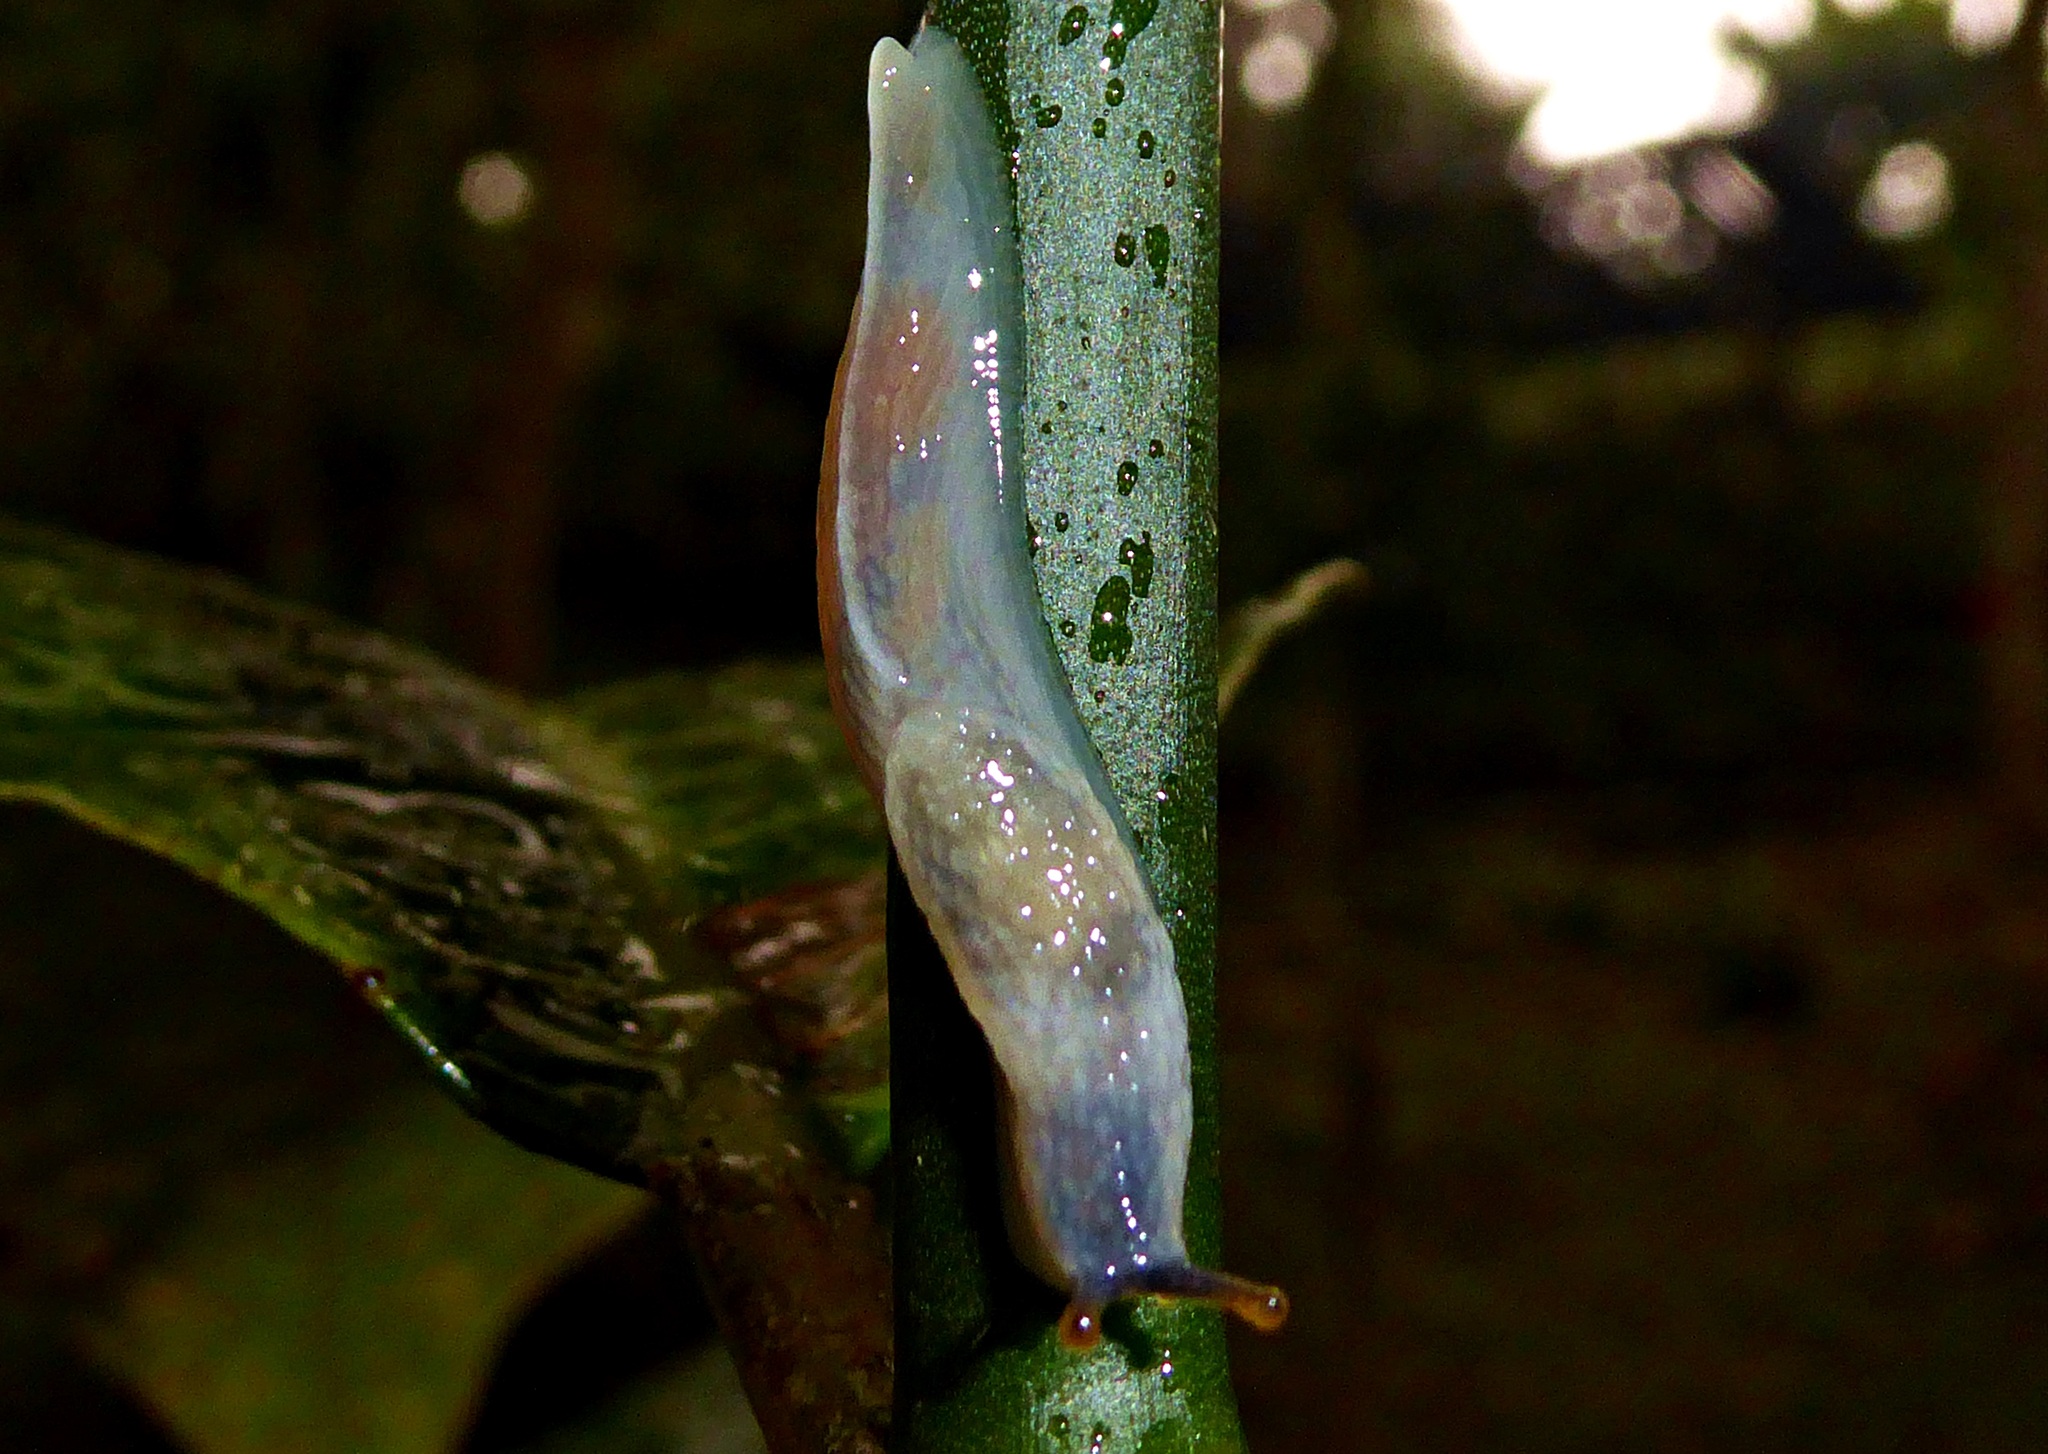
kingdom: Animalia
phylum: Mollusca
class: Gastropoda
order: Stylommatophora
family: Urocyclidae
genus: Dendrolimax
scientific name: Dendrolimax greeffi
